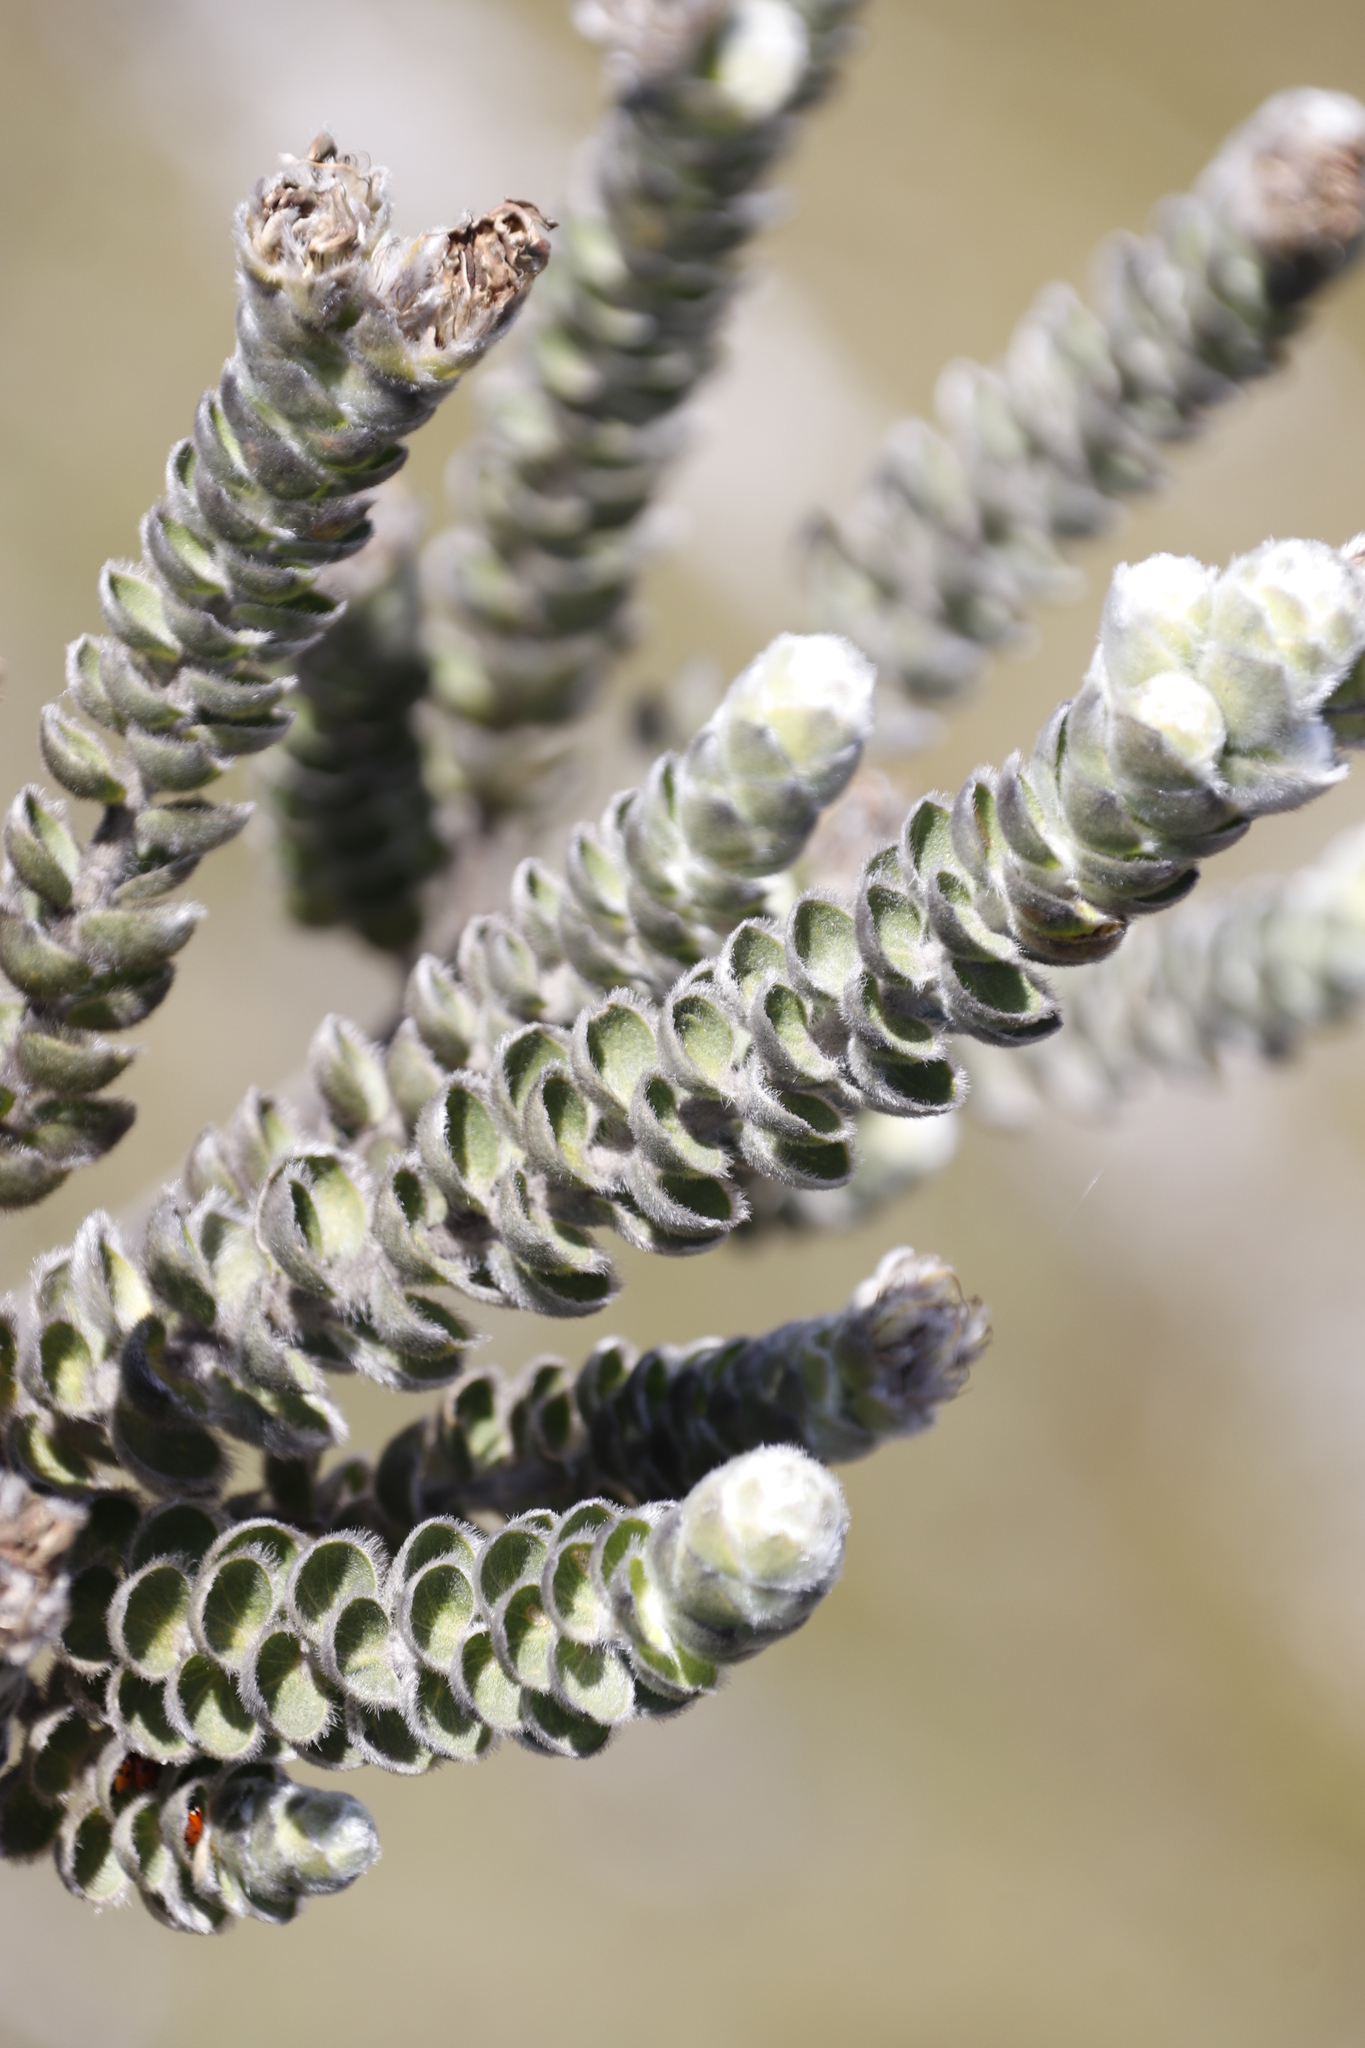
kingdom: Plantae
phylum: Tracheophyta
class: Magnoliopsida
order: Fabales
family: Fabaceae
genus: Liparia
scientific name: Liparia vestita
